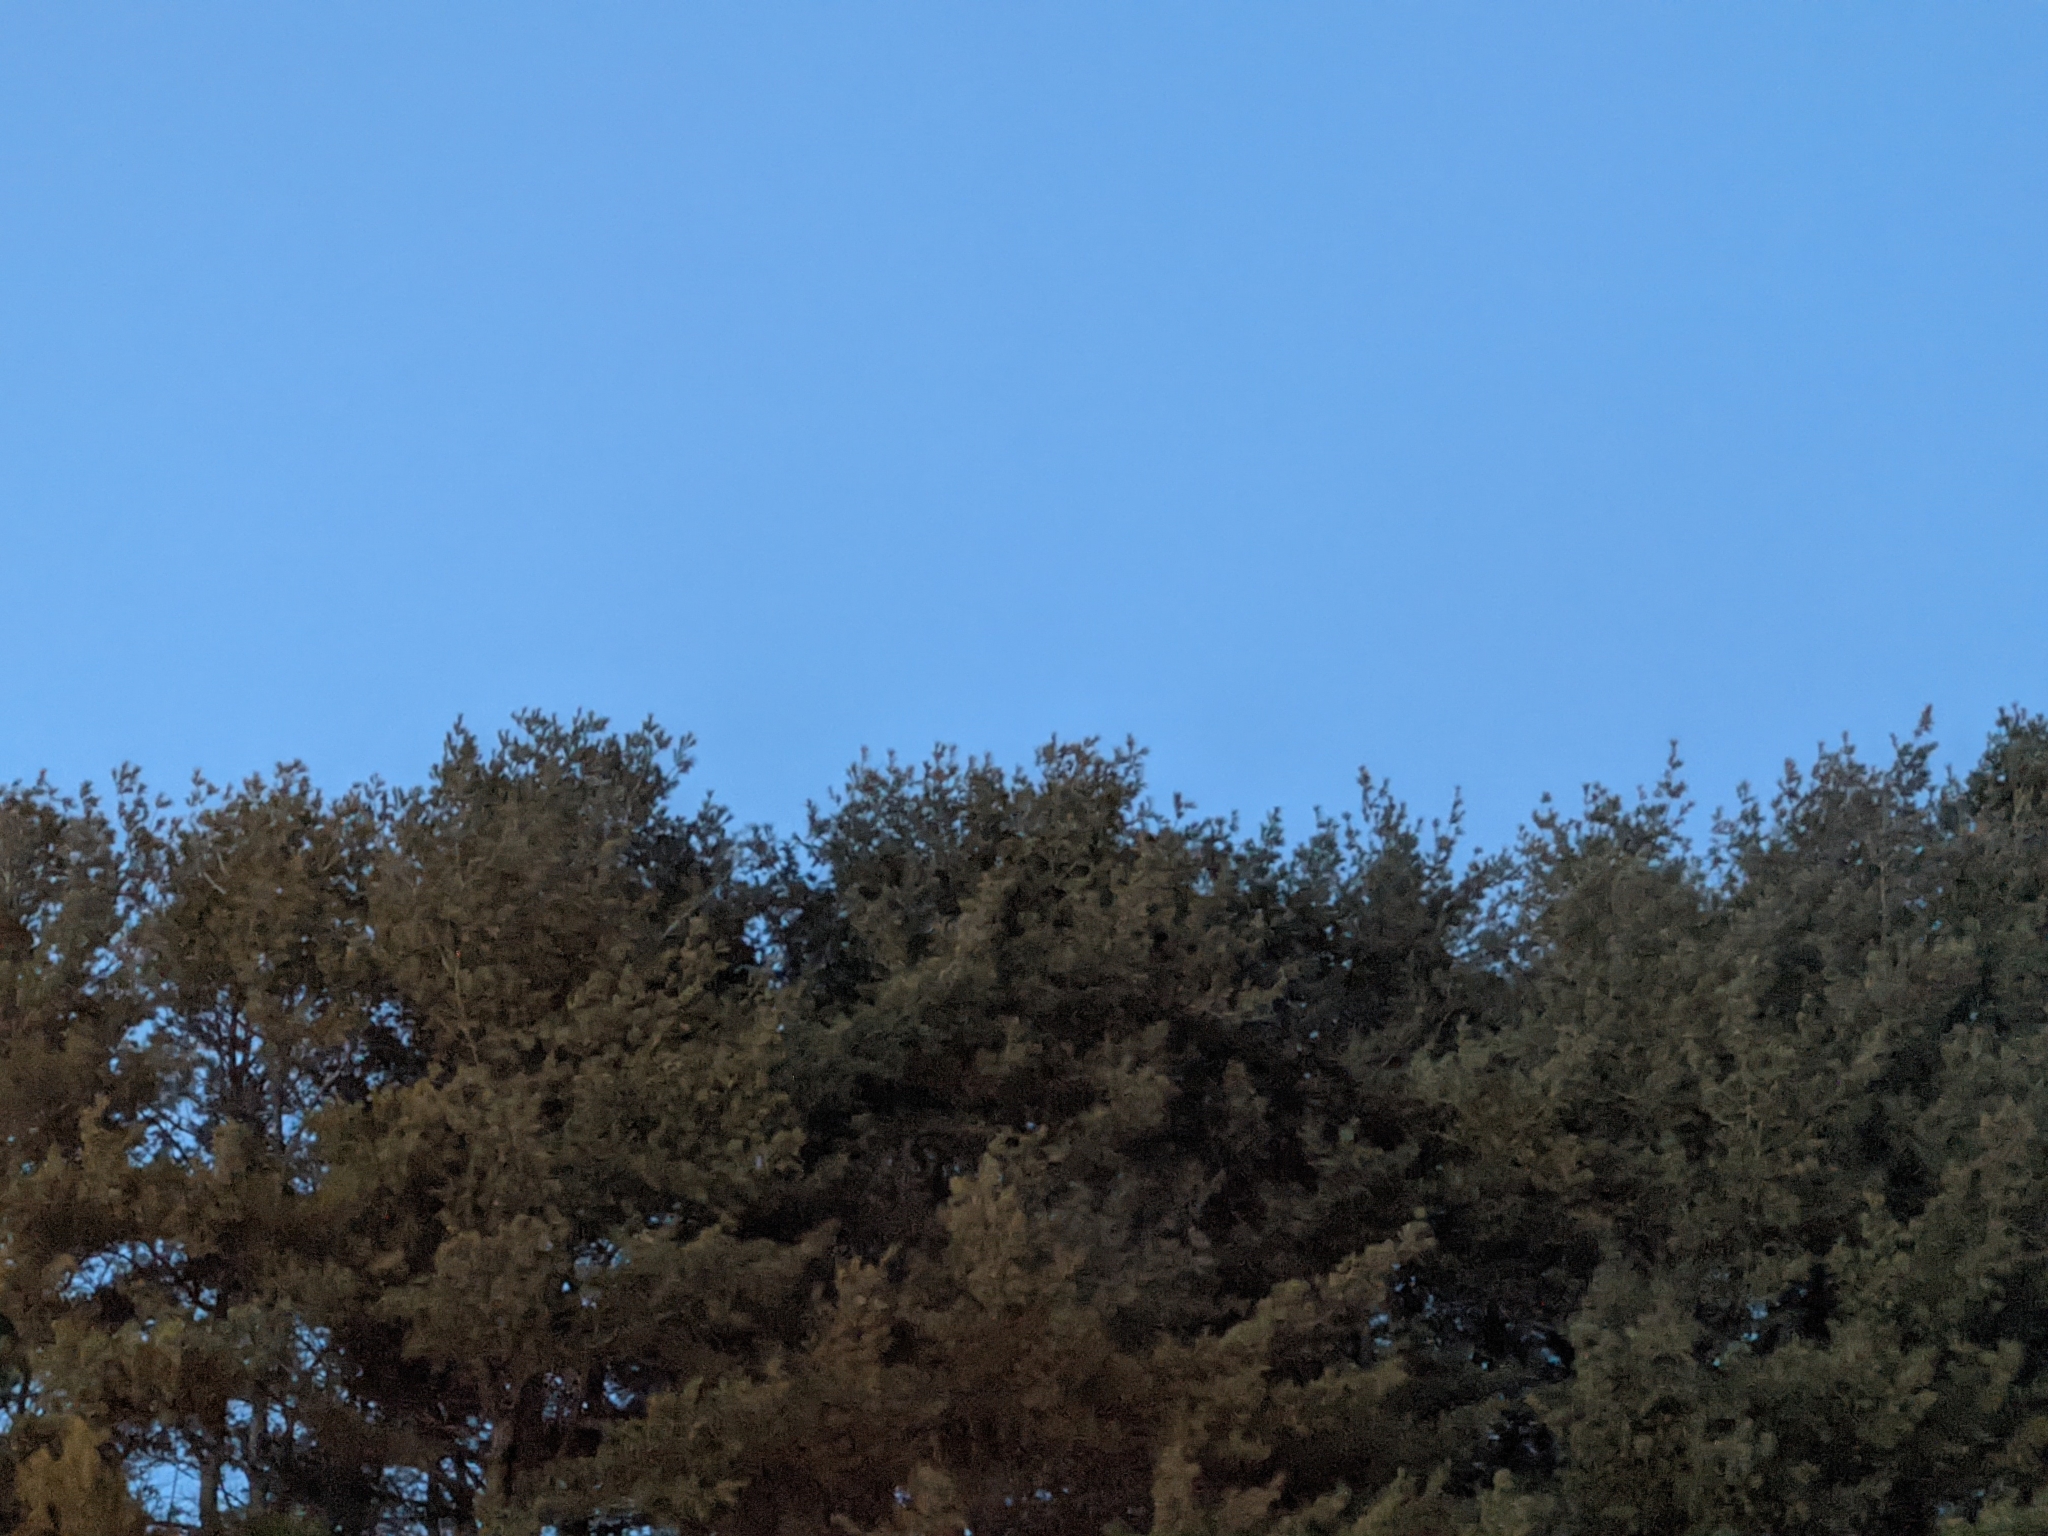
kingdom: Plantae
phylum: Tracheophyta
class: Pinopsida
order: Pinales
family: Pinaceae
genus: Pinus
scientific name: Pinus strobus
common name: Weymouth pine
